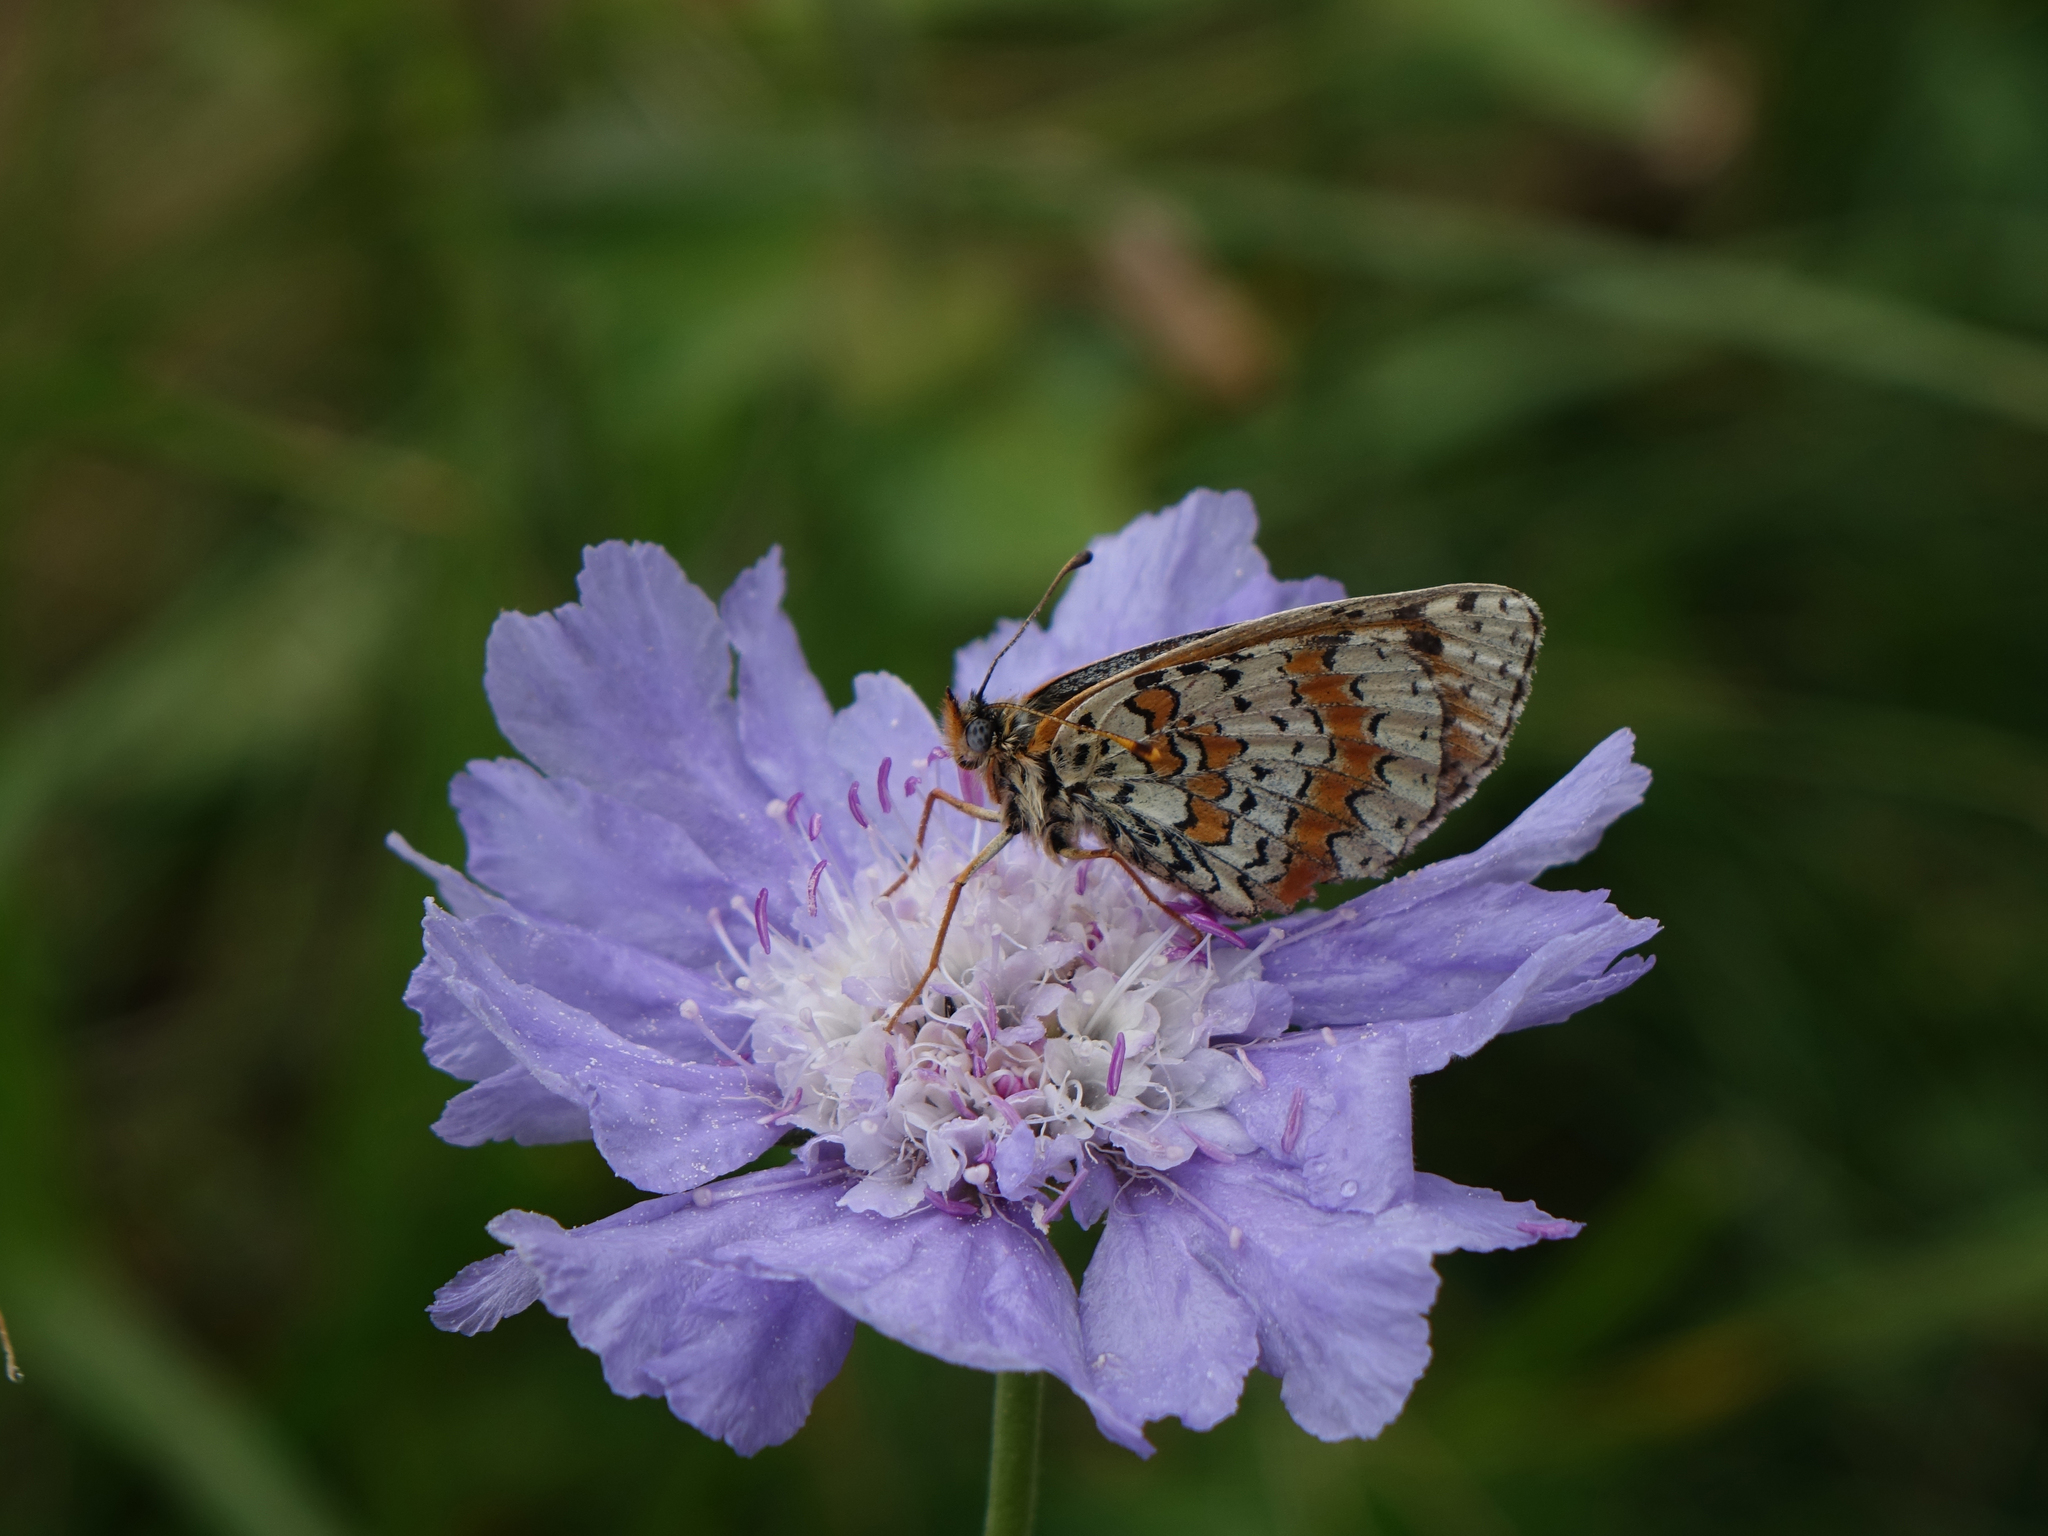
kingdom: Animalia
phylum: Arthropoda
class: Insecta
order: Lepidoptera
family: Nymphalidae
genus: Melitaea
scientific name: Melitaea cinxia
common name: Glanville fritillary
